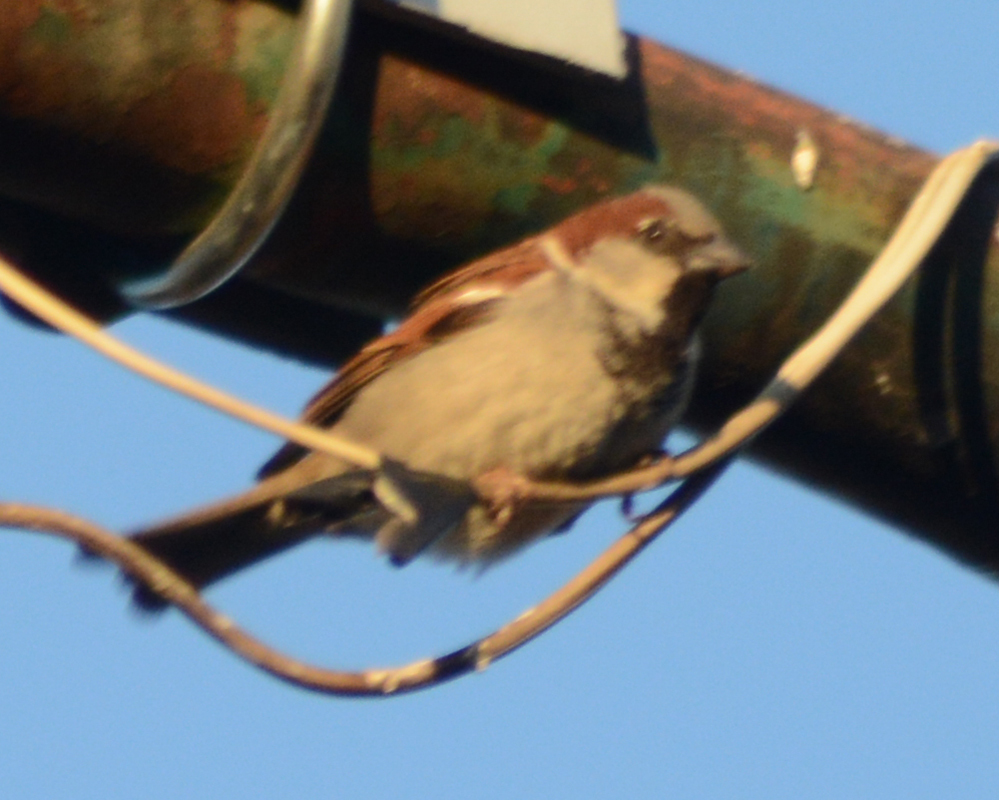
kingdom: Animalia
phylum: Chordata
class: Aves
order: Passeriformes
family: Passeridae
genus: Passer
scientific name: Passer domesticus
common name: House sparrow
